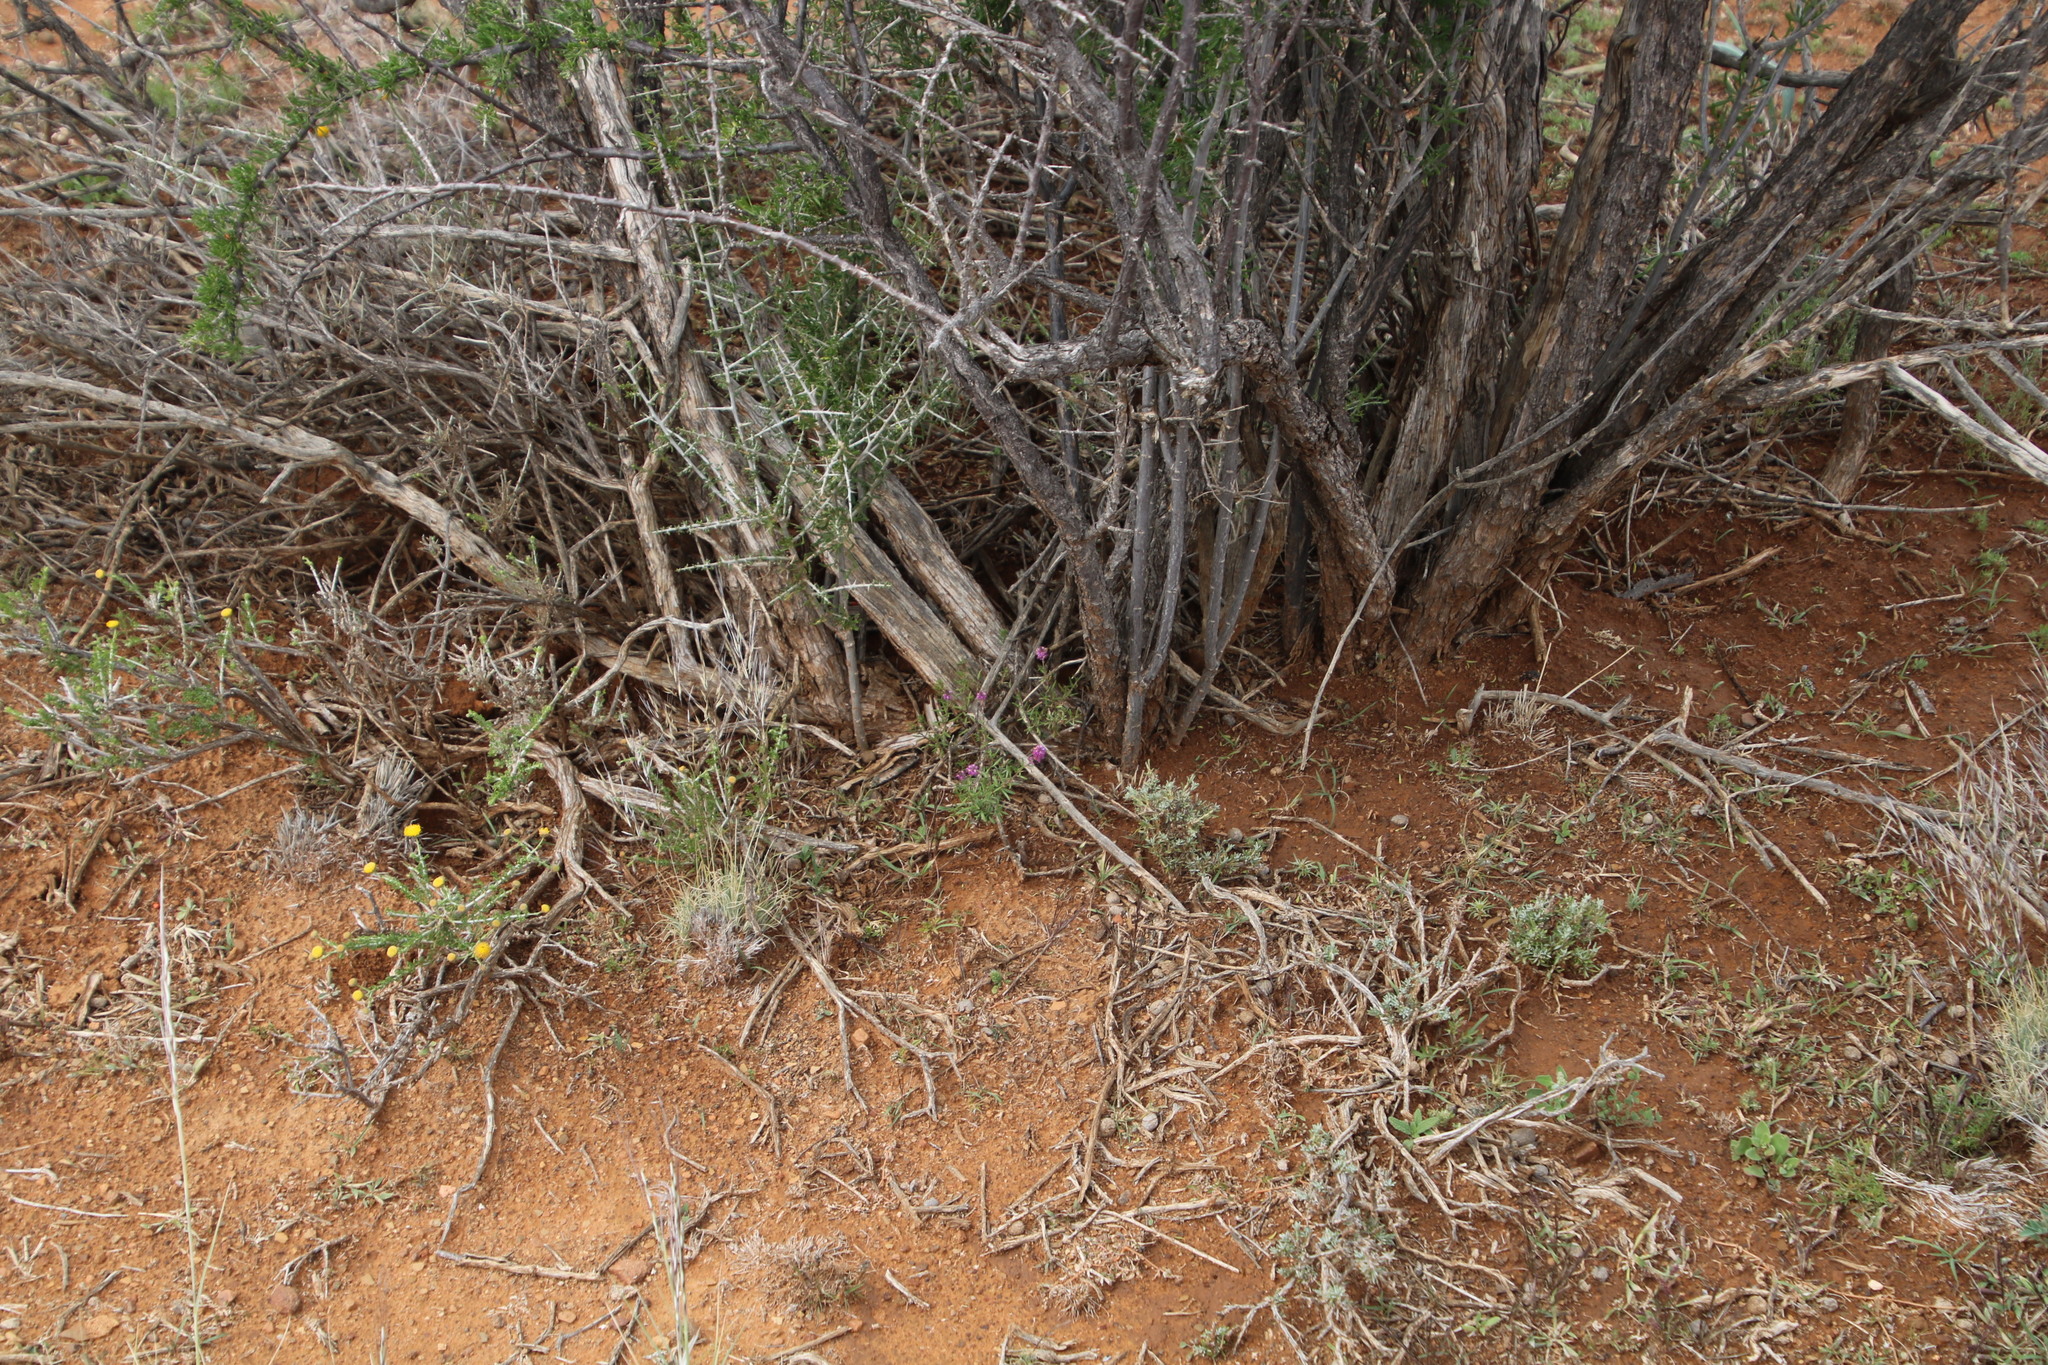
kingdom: Plantae
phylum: Tracheophyta
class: Magnoliopsida
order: Lamiales
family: Scrophulariaceae
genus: Selago
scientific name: Selago centralis
